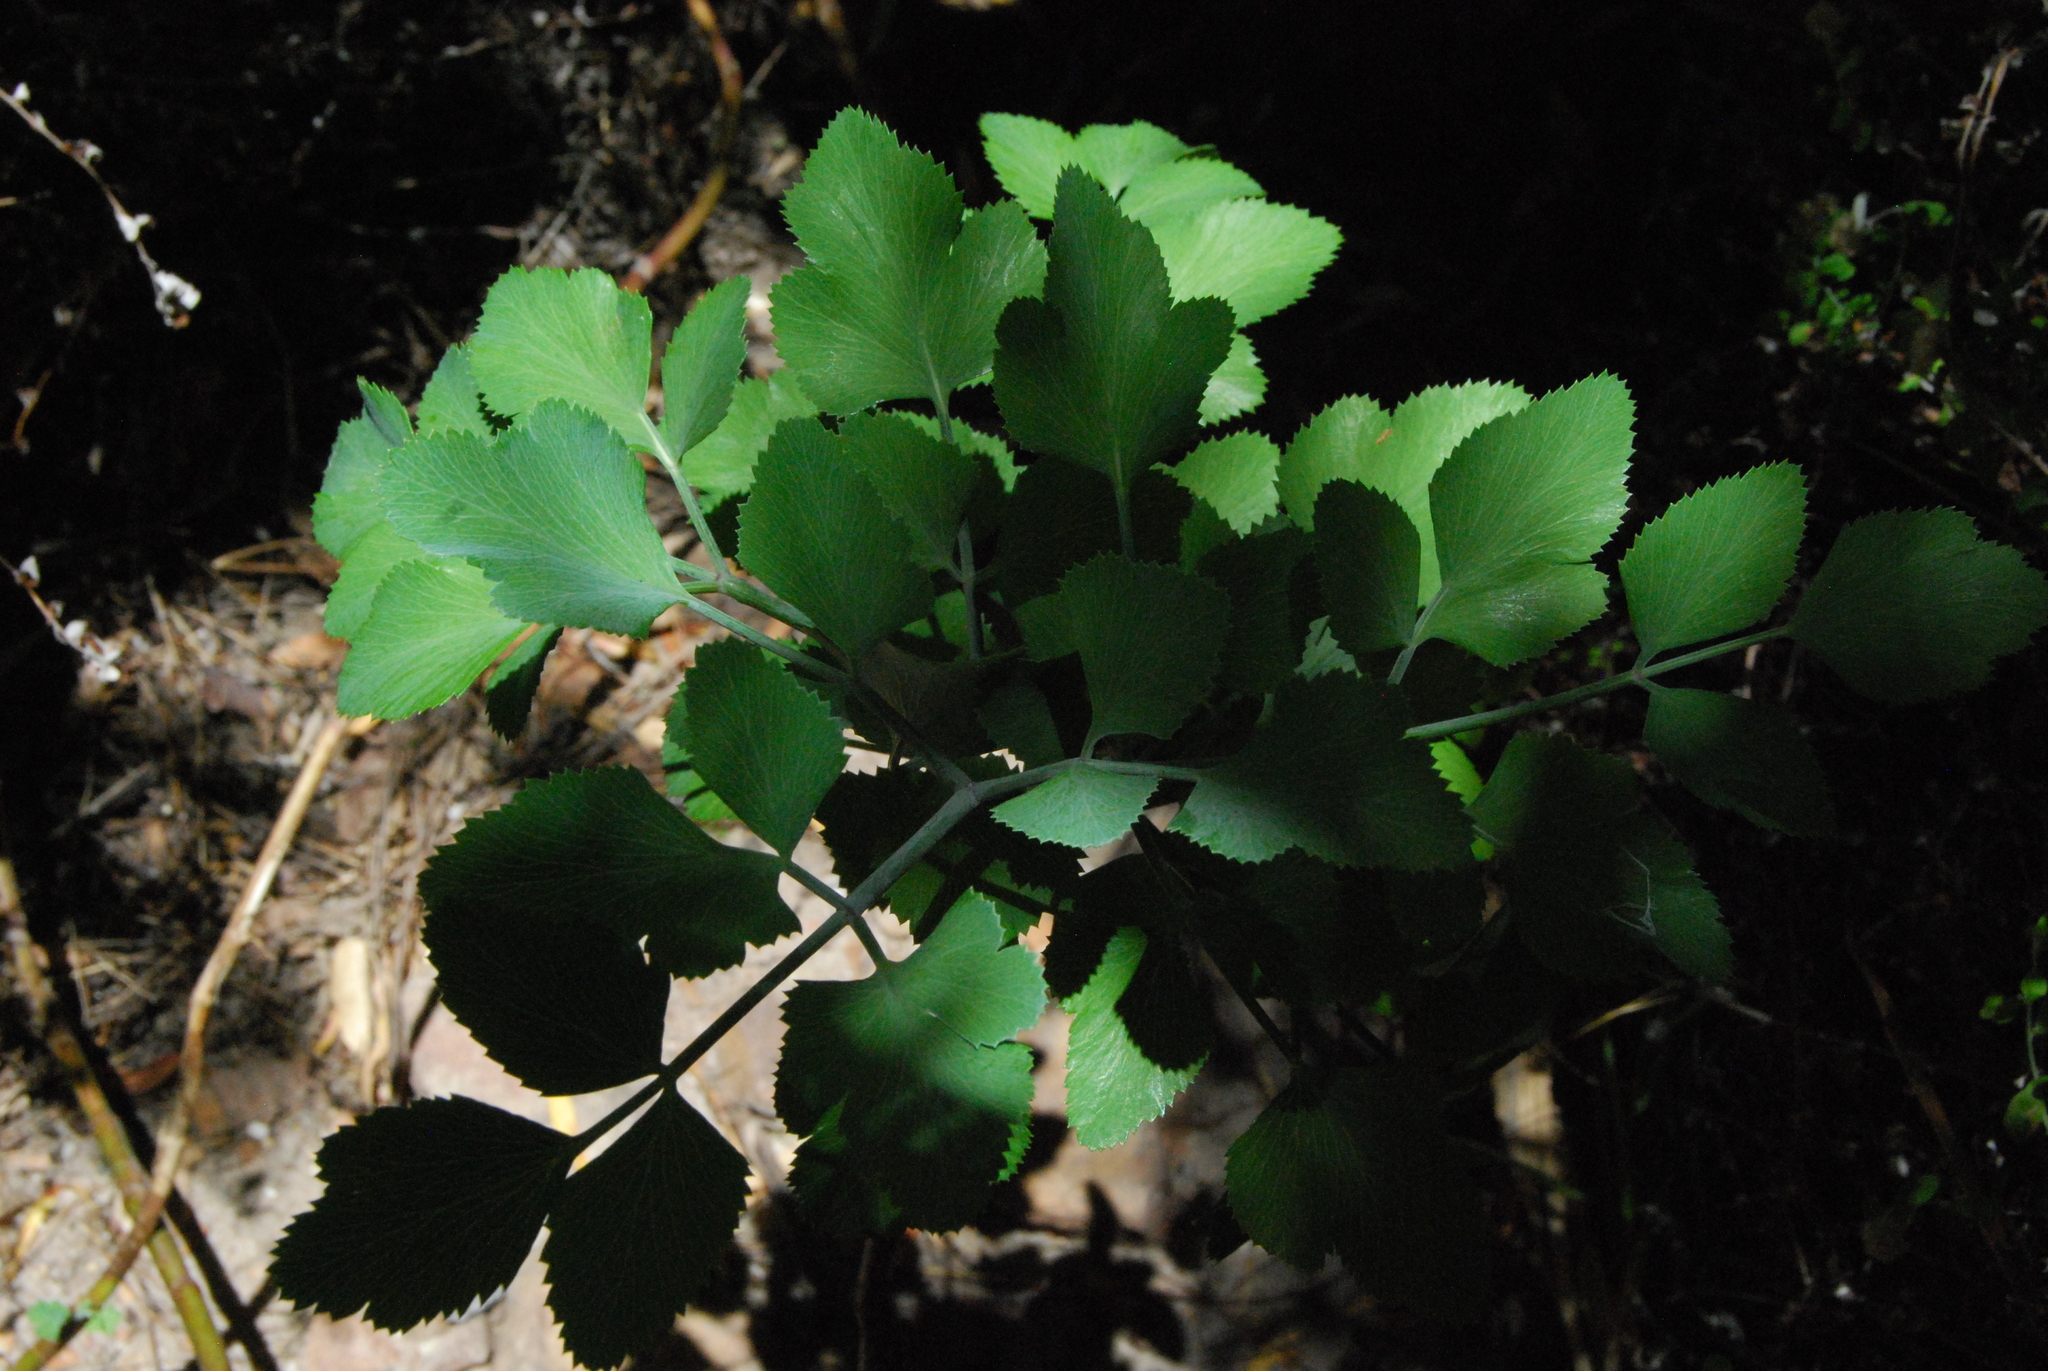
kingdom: Plantae
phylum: Tracheophyta
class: Magnoliopsida
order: Apiales
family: Apiaceae
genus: Notobubon
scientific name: Notobubon galbanum
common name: Blisterbush
